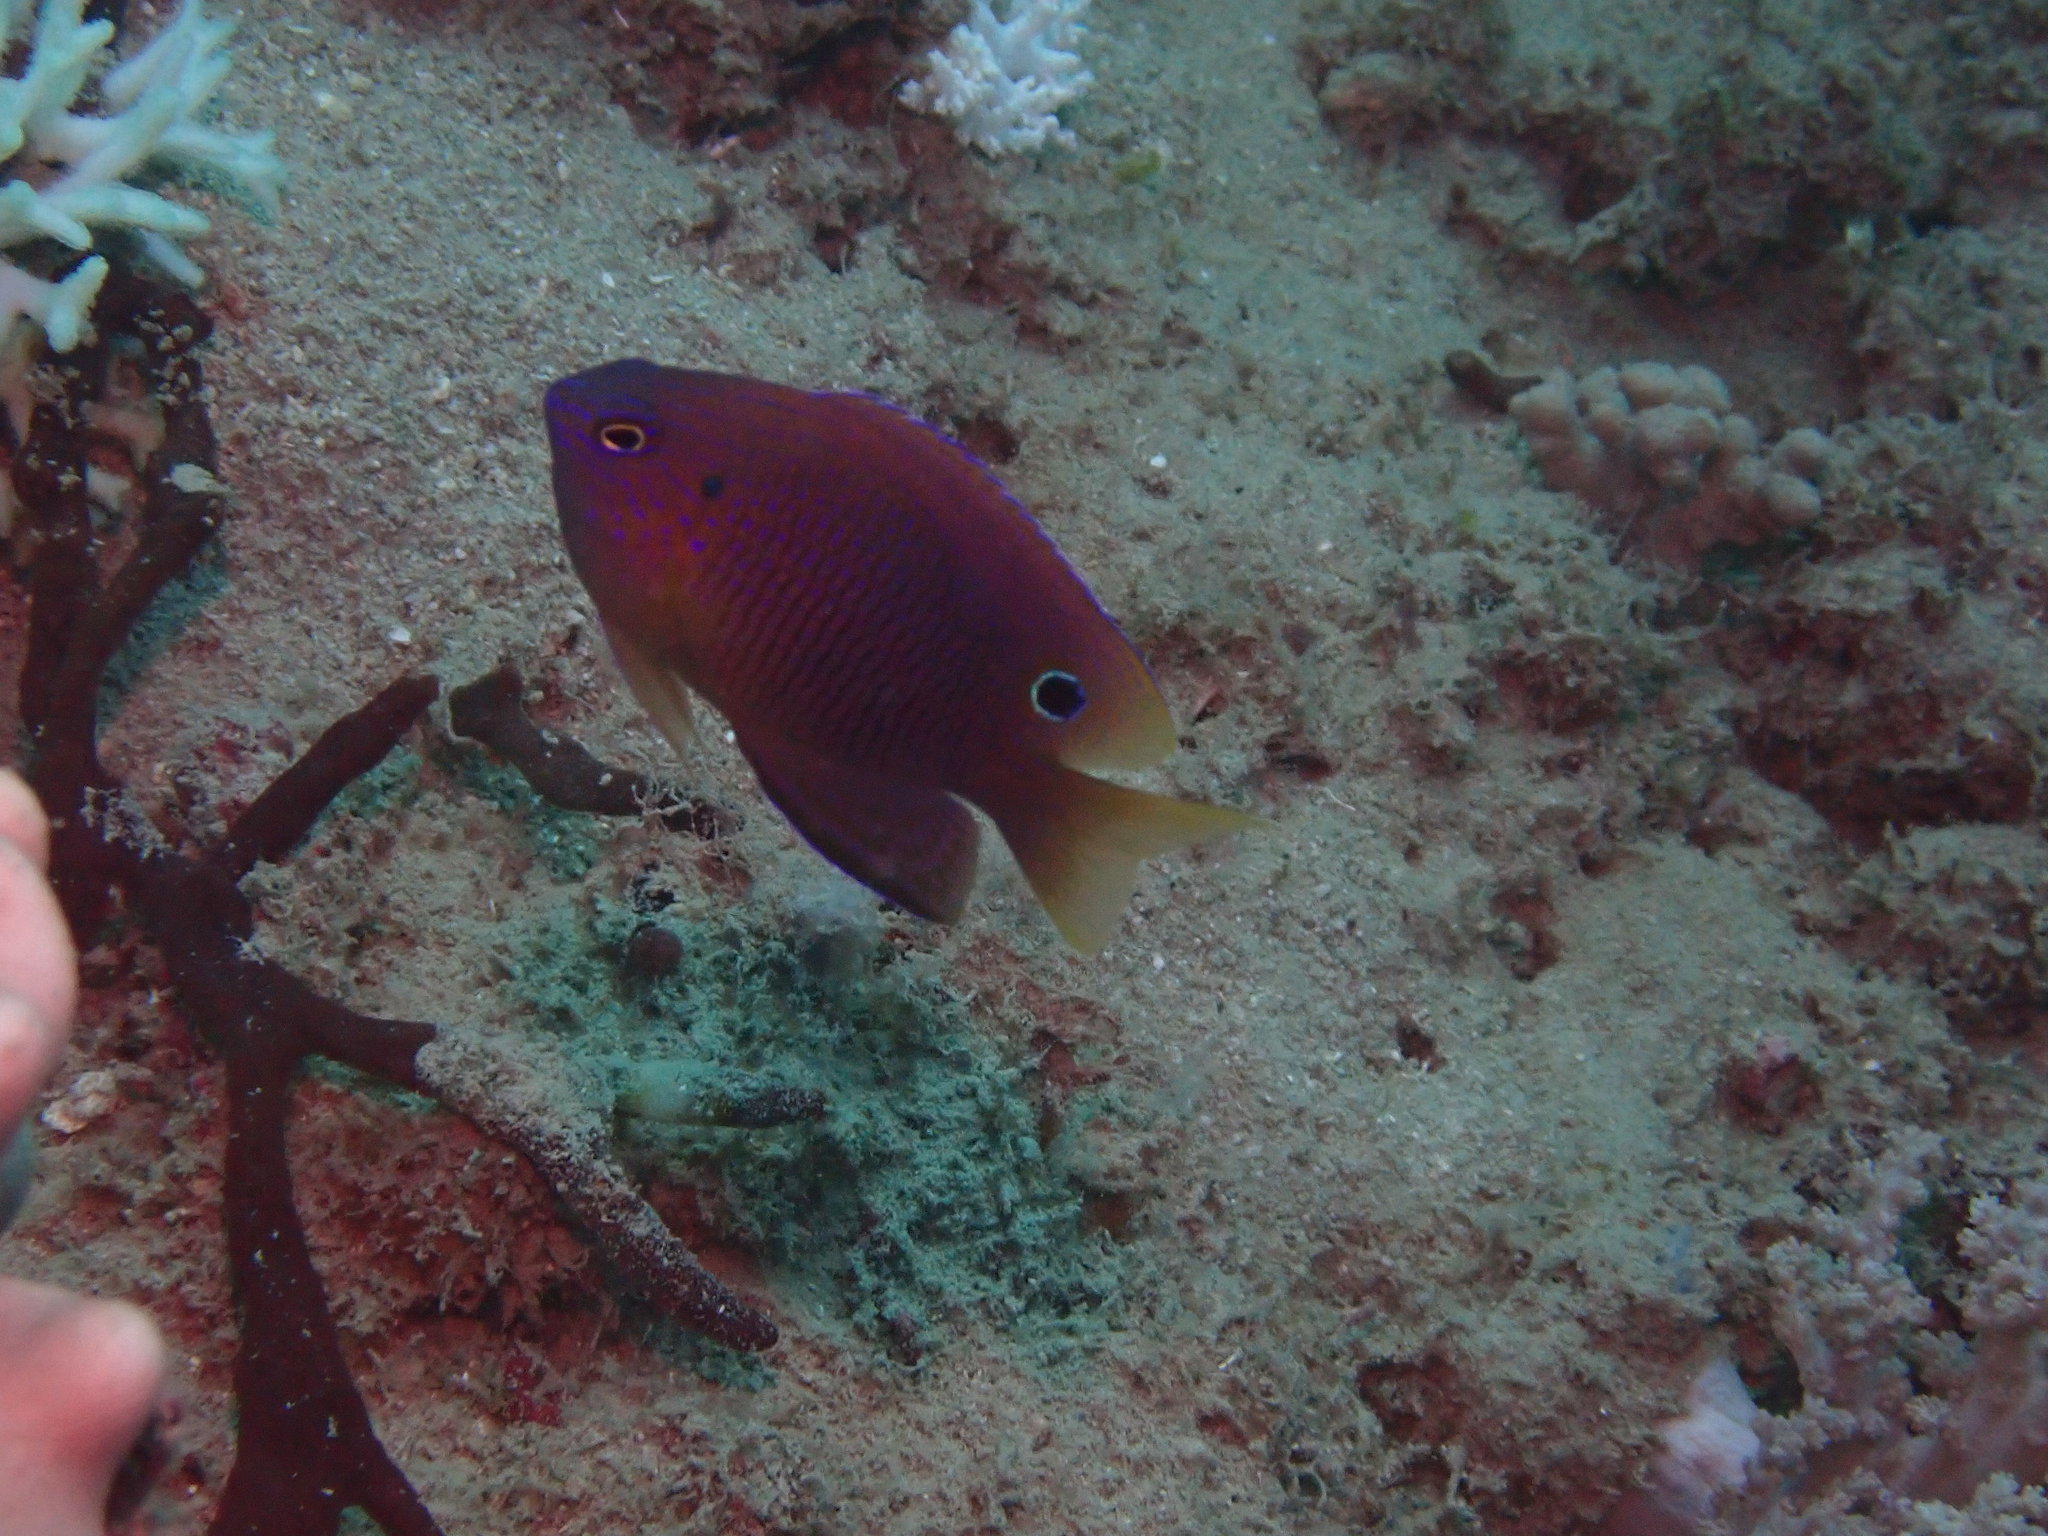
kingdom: Animalia
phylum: Chordata
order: Perciformes
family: Pomacentridae
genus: Pomacentrus
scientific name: Pomacentrus vaiuli
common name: Princess damsel
